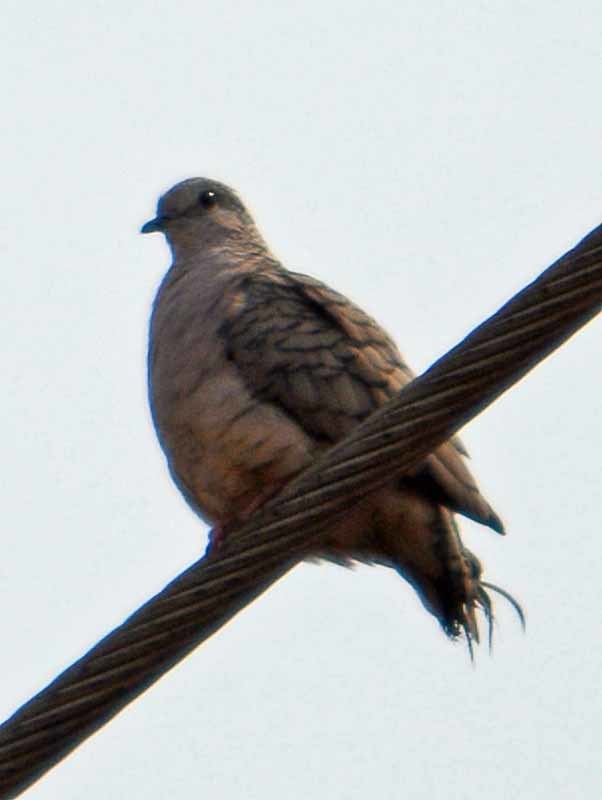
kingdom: Animalia
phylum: Chordata
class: Aves
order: Columbiformes
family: Columbidae
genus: Columbina
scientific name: Columbina inca
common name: Inca dove
